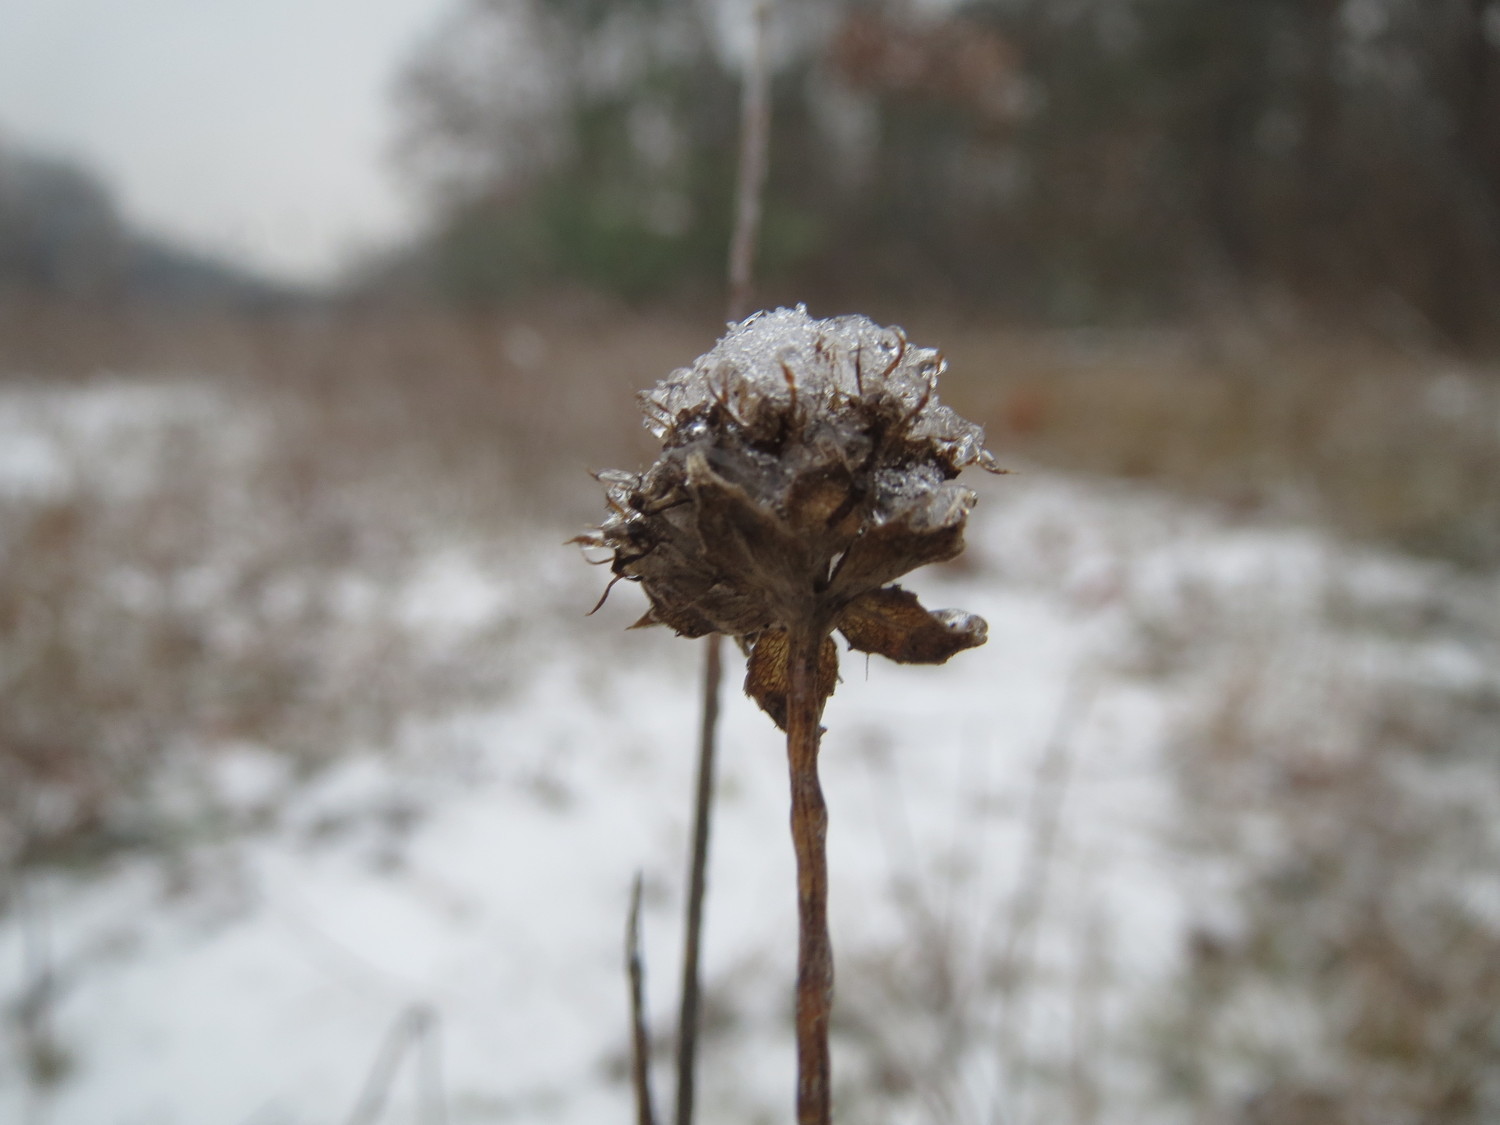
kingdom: Plantae
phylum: Tracheophyta
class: Magnoliopsida
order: Asterales
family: Campanulaceae
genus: Jasione
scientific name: Jasione montana
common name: Sheep's-bit
